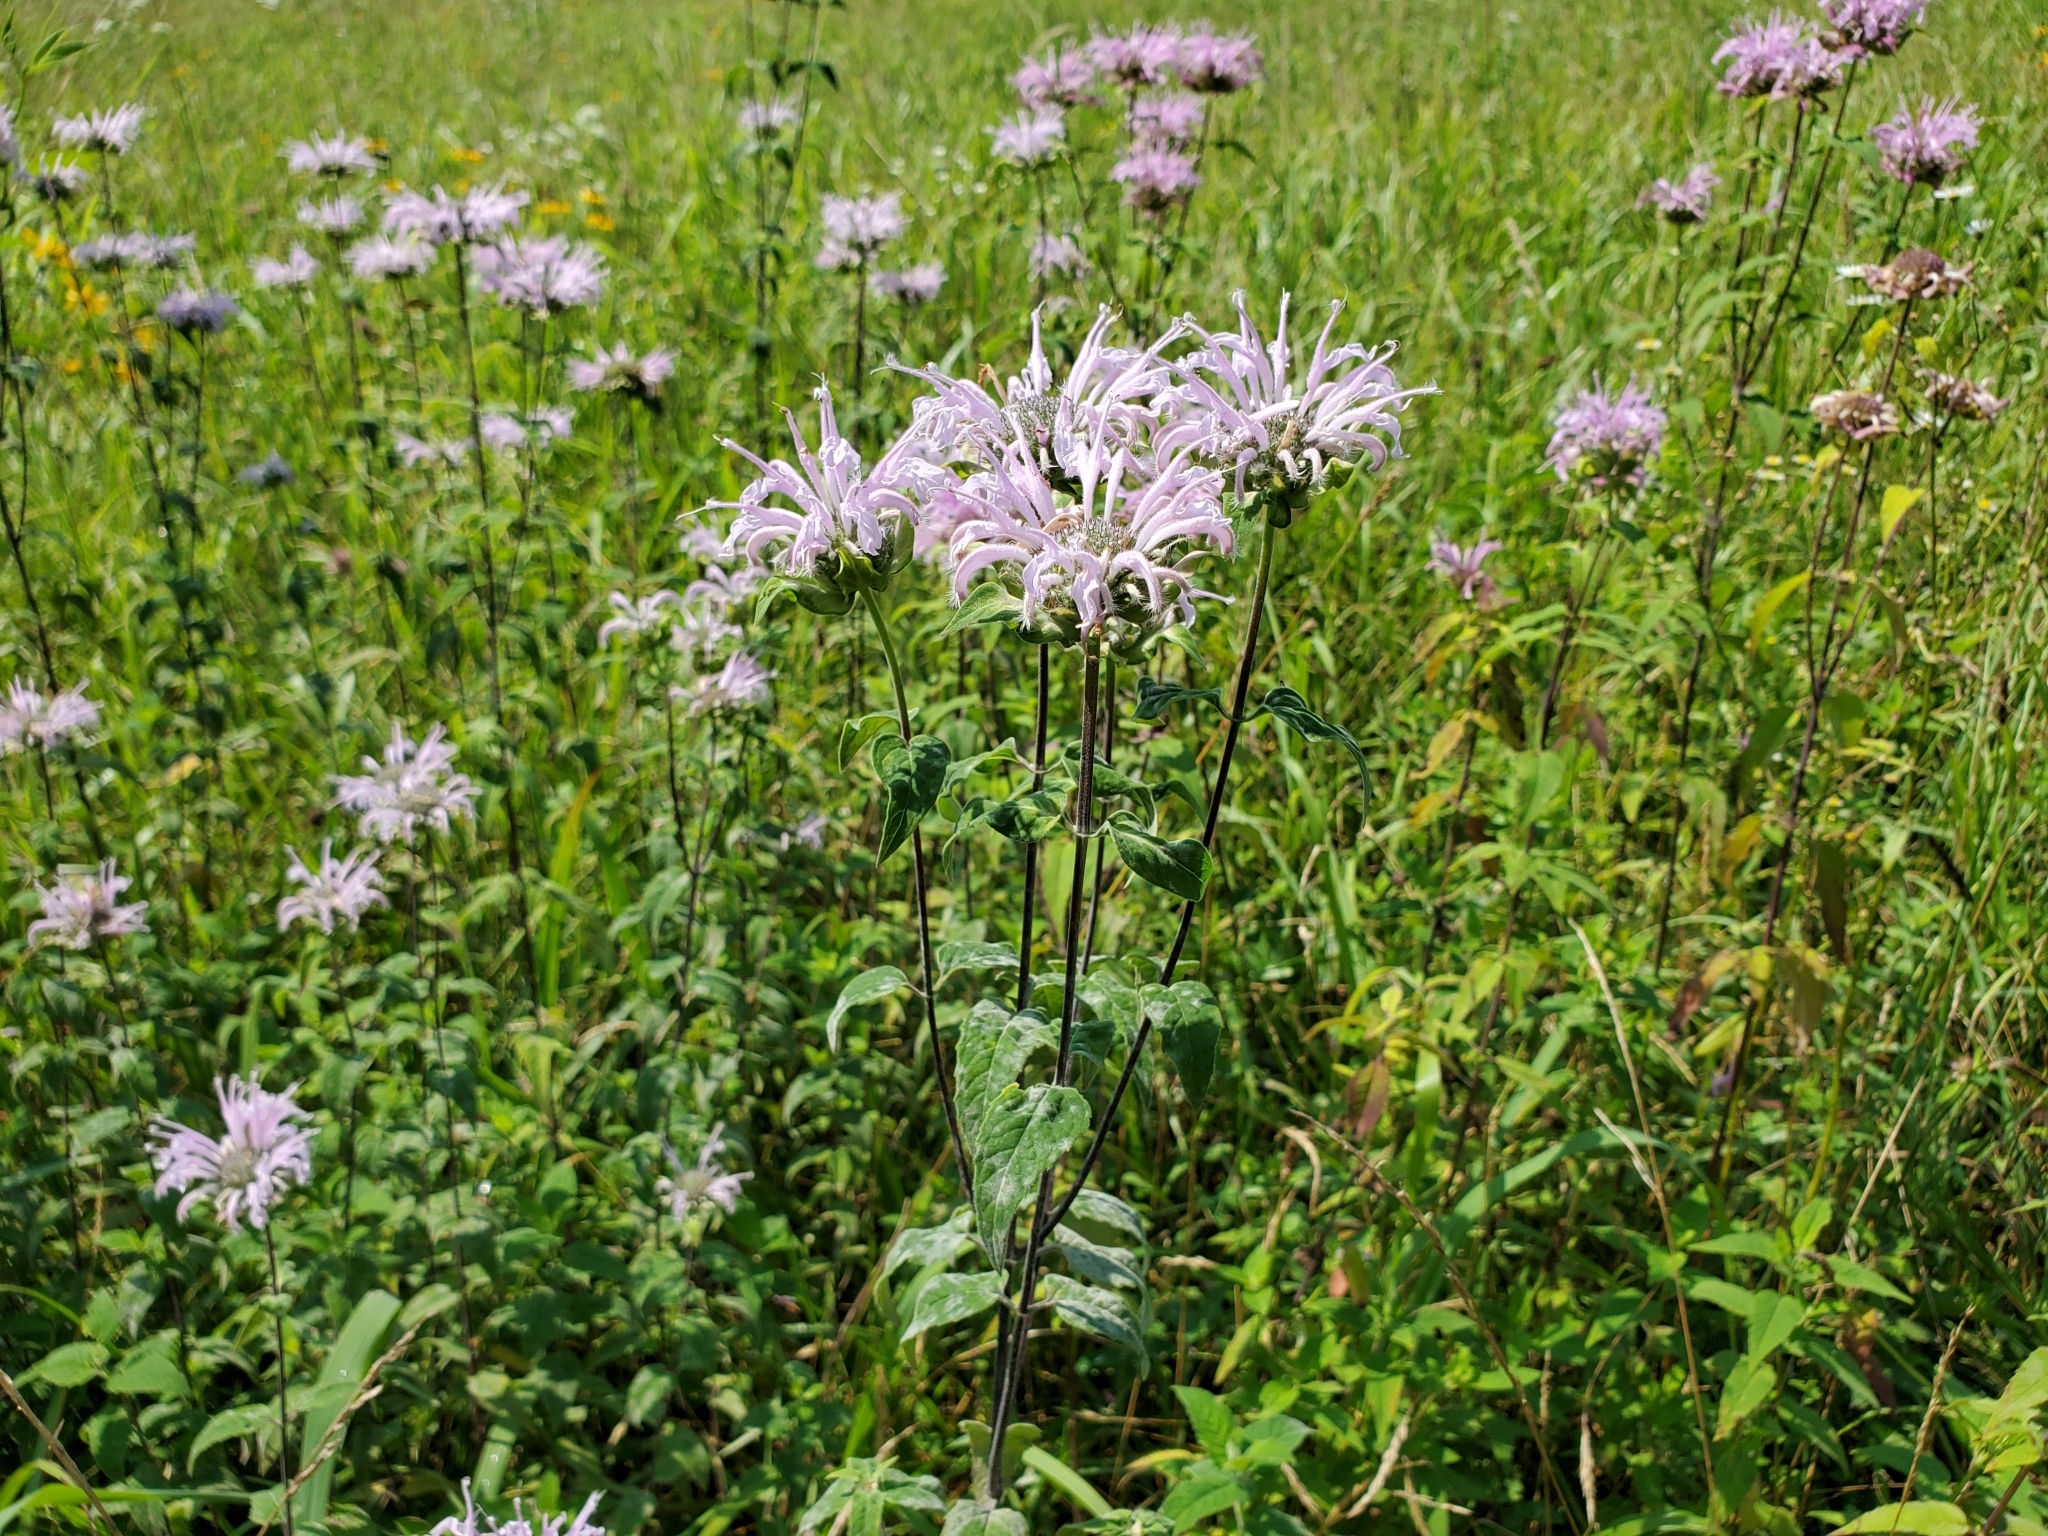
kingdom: Plantae
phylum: Tracheophyta
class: Magnoliopsida
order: Lamiales
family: Lamiaceae
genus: Monarda
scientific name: Monarda fistulosa
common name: Purple beebalm
